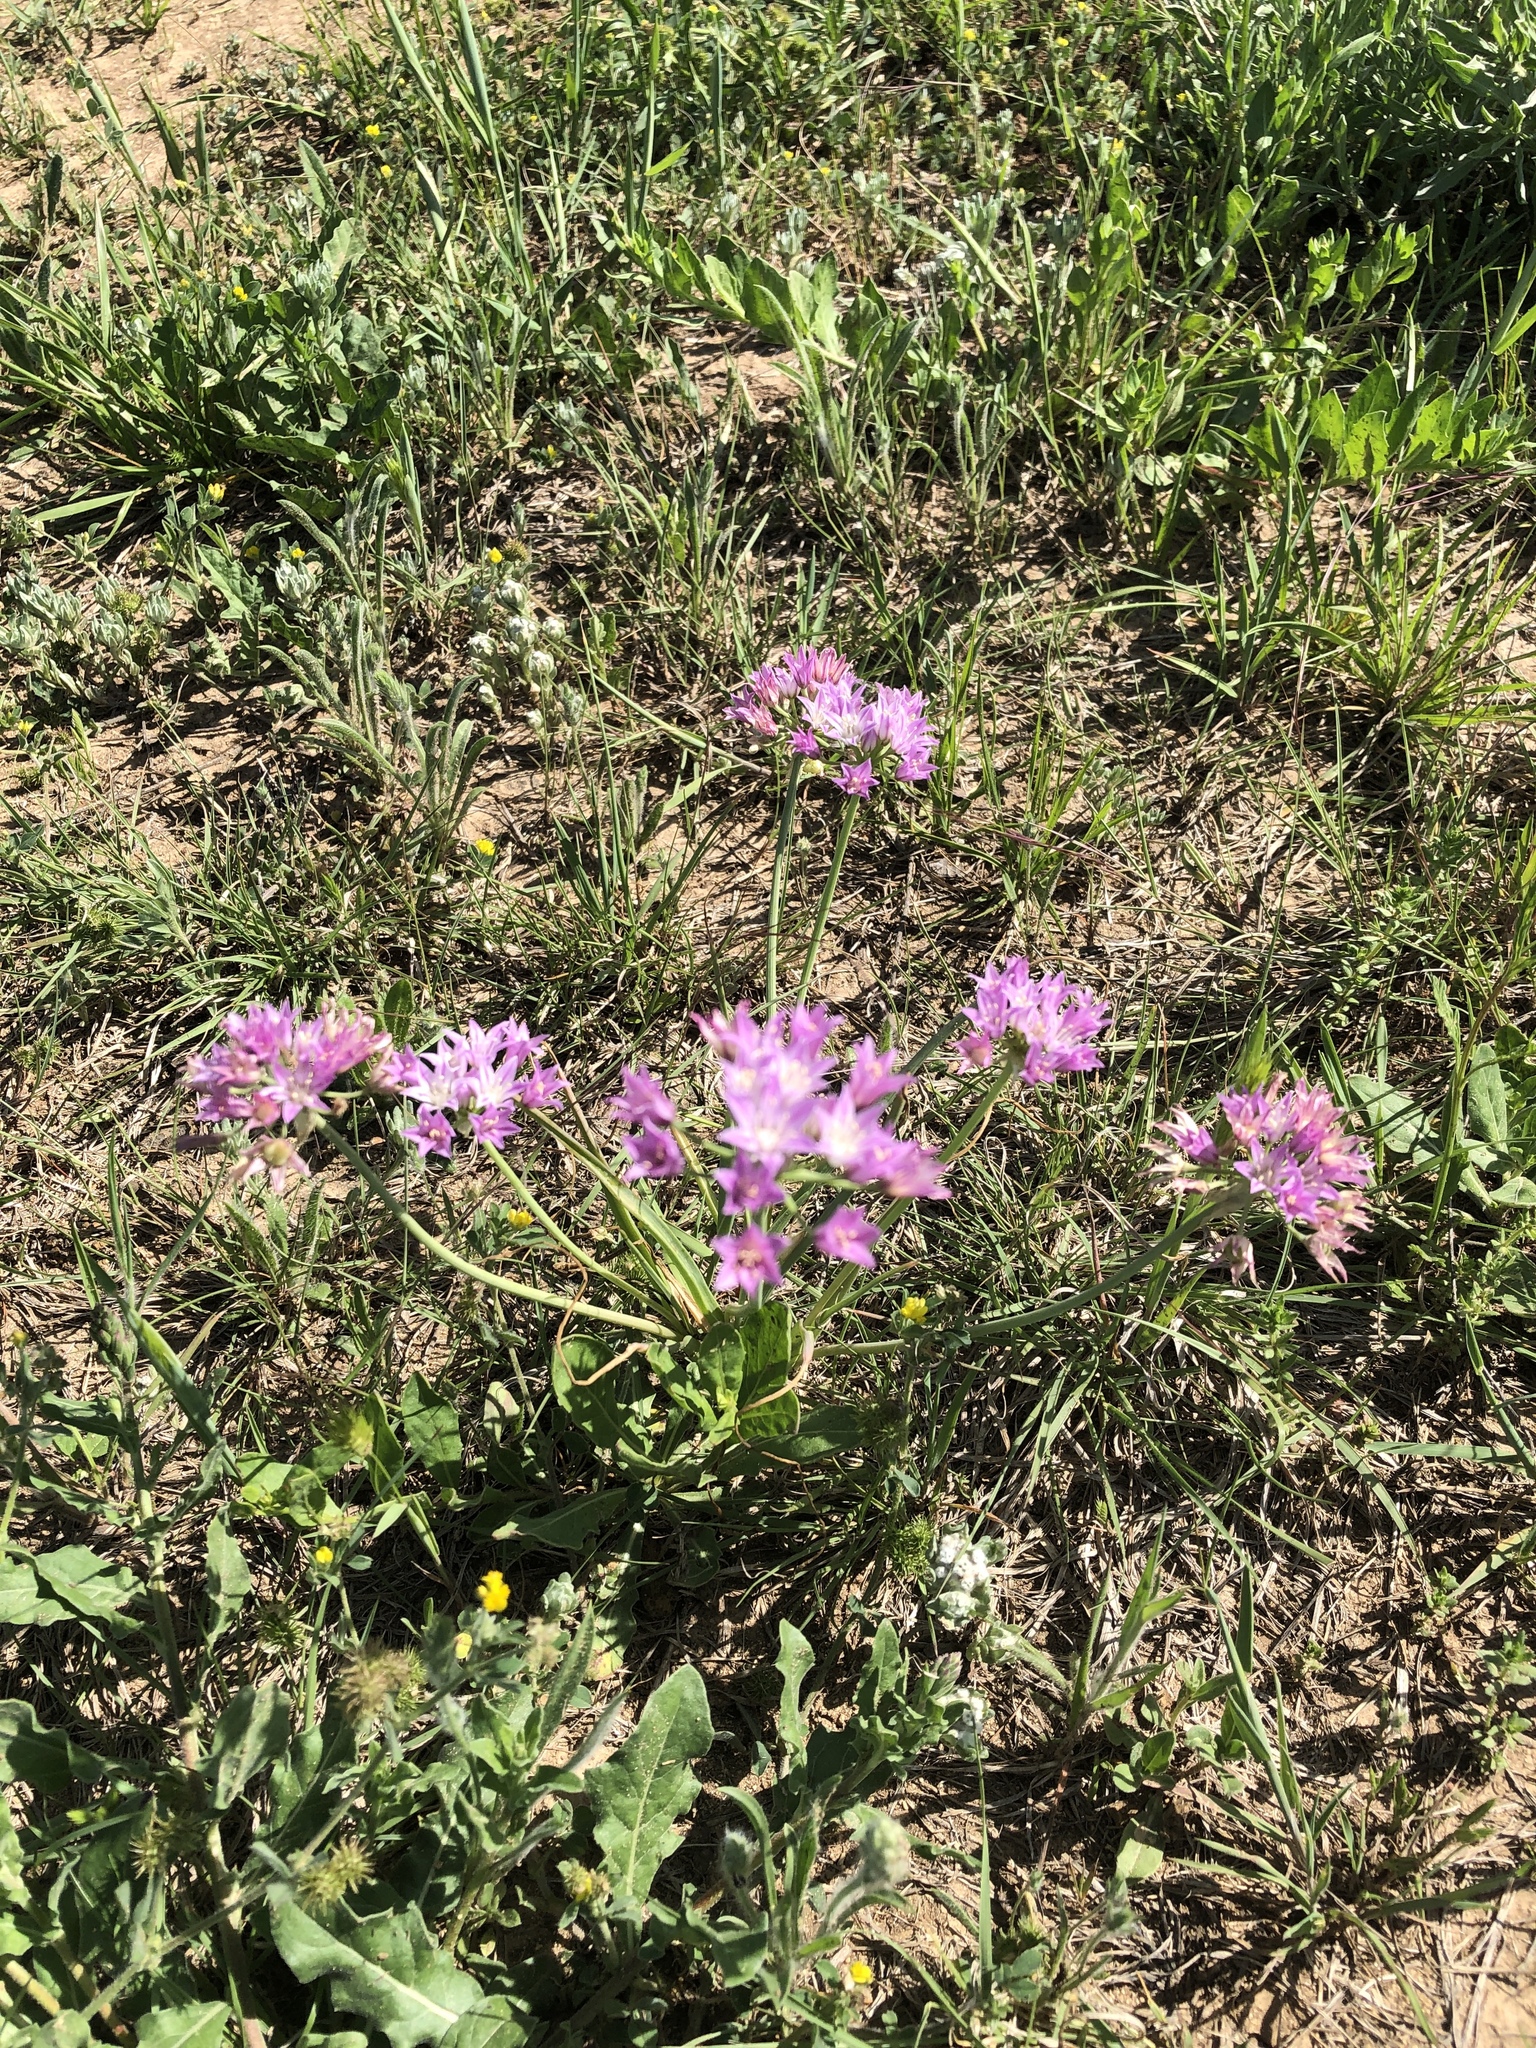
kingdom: Plantae
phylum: Tracheophyta
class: Liliopsida
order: Asparagales
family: Amaryllidaceae
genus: Allium
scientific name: Allium drummondii
